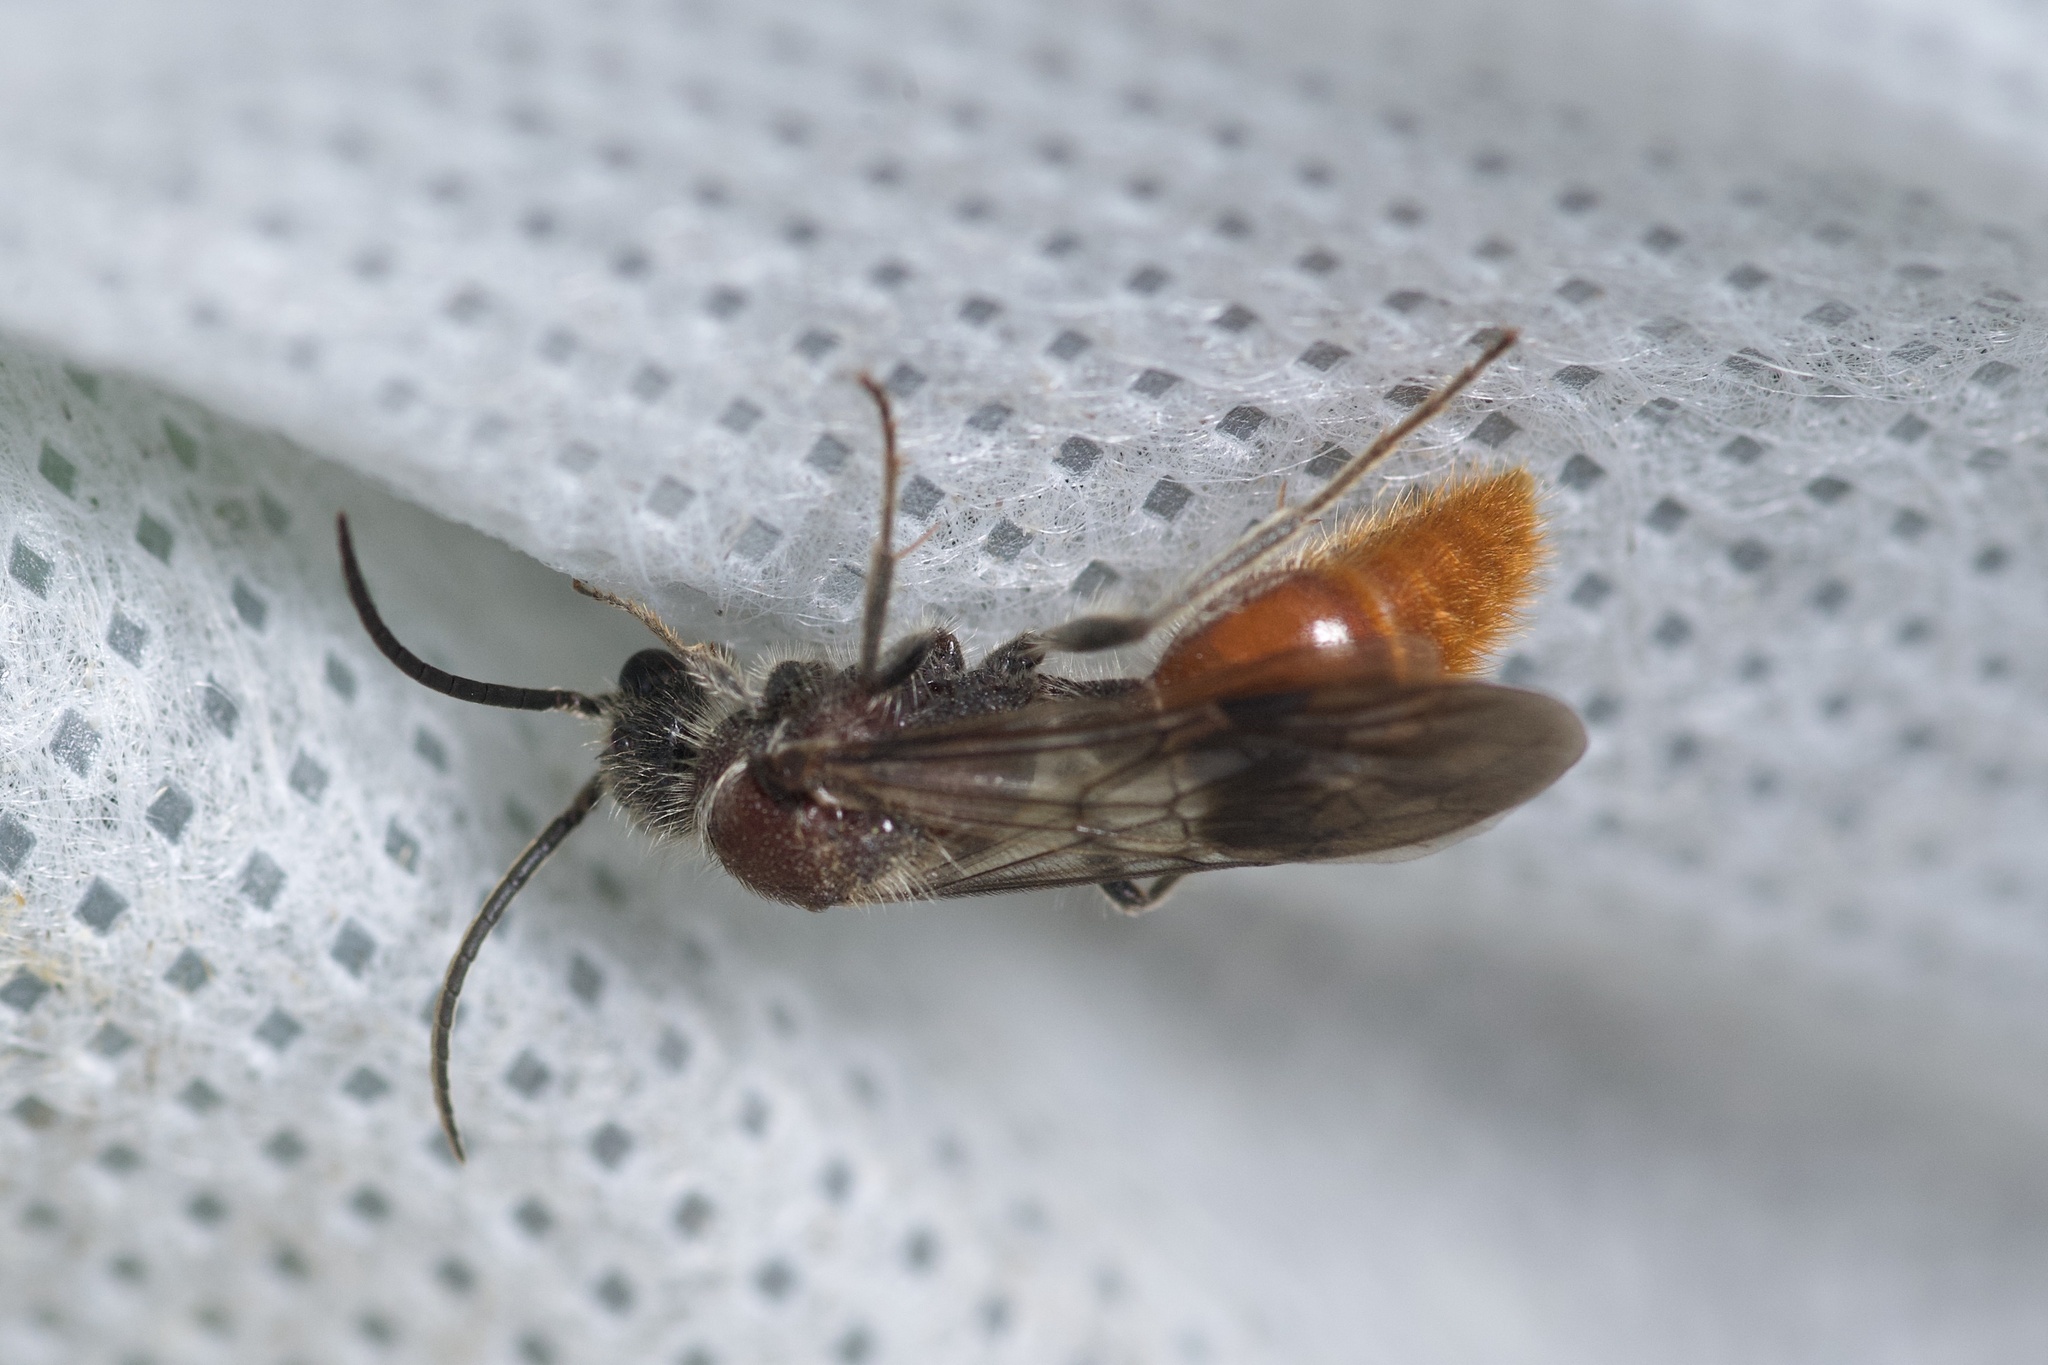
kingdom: Animalia
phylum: Arthropoda
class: Insecta
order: Hymenoptera
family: Mutillidae
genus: Sphaeropthalma
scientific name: Sphaeropthalma imperialis
